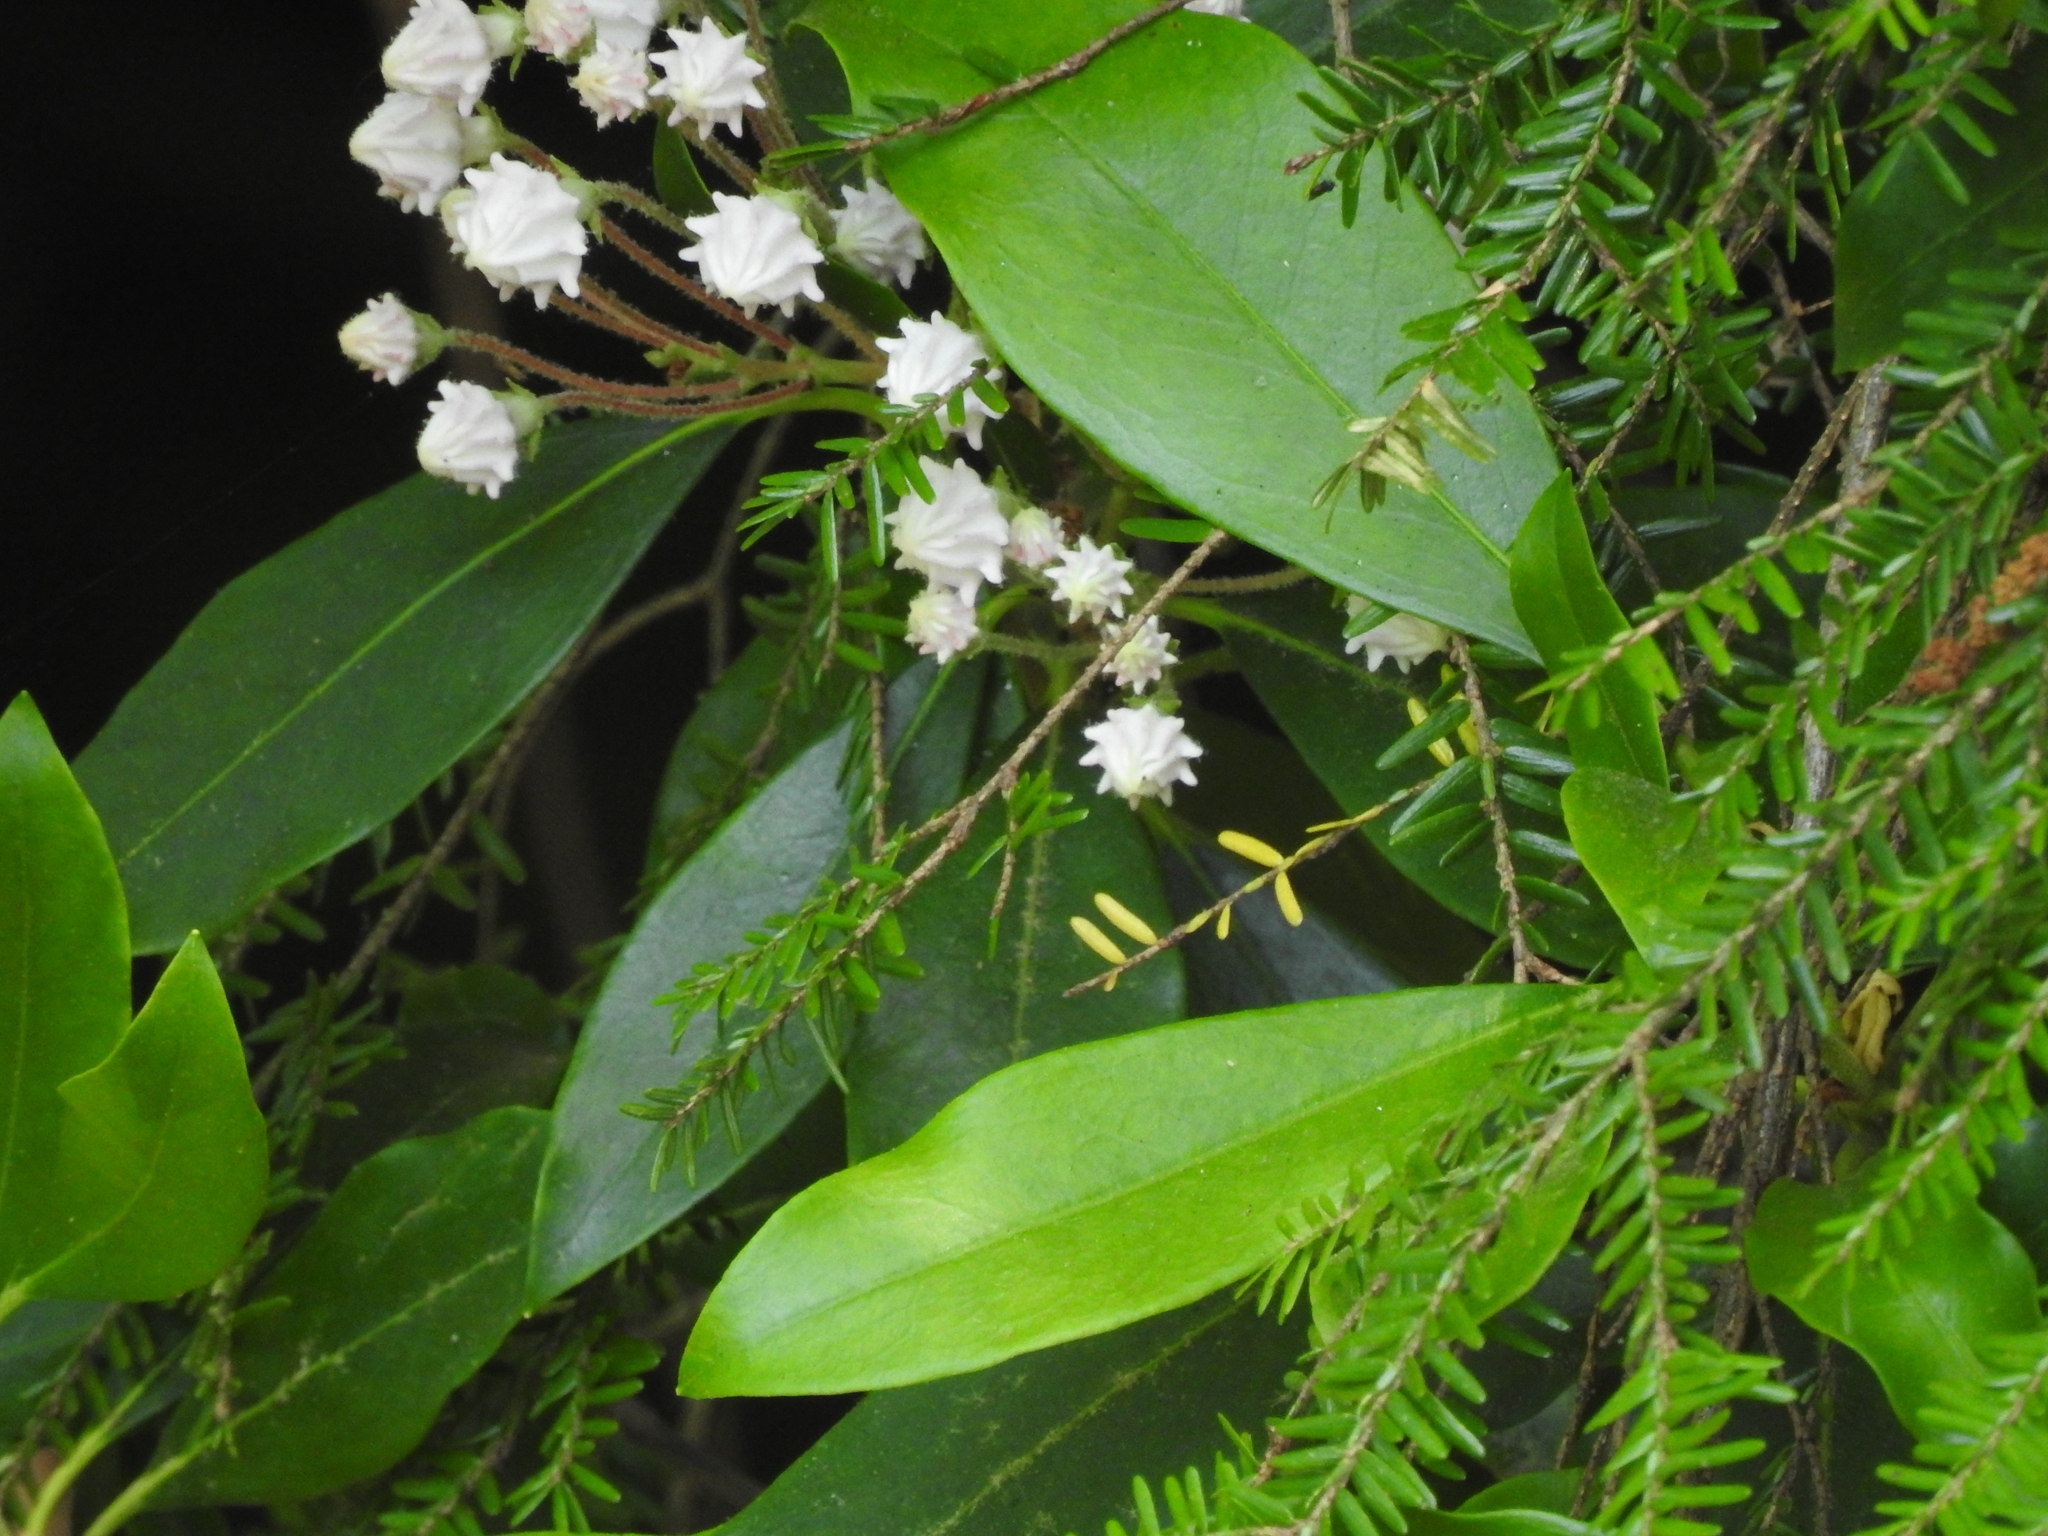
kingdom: Plantae
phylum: Tracheophyta
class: Magnoliopsida
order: Ericales
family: Ericaceae
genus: Kalmia
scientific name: Kalmia latifolia
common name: Mountain-laurel
